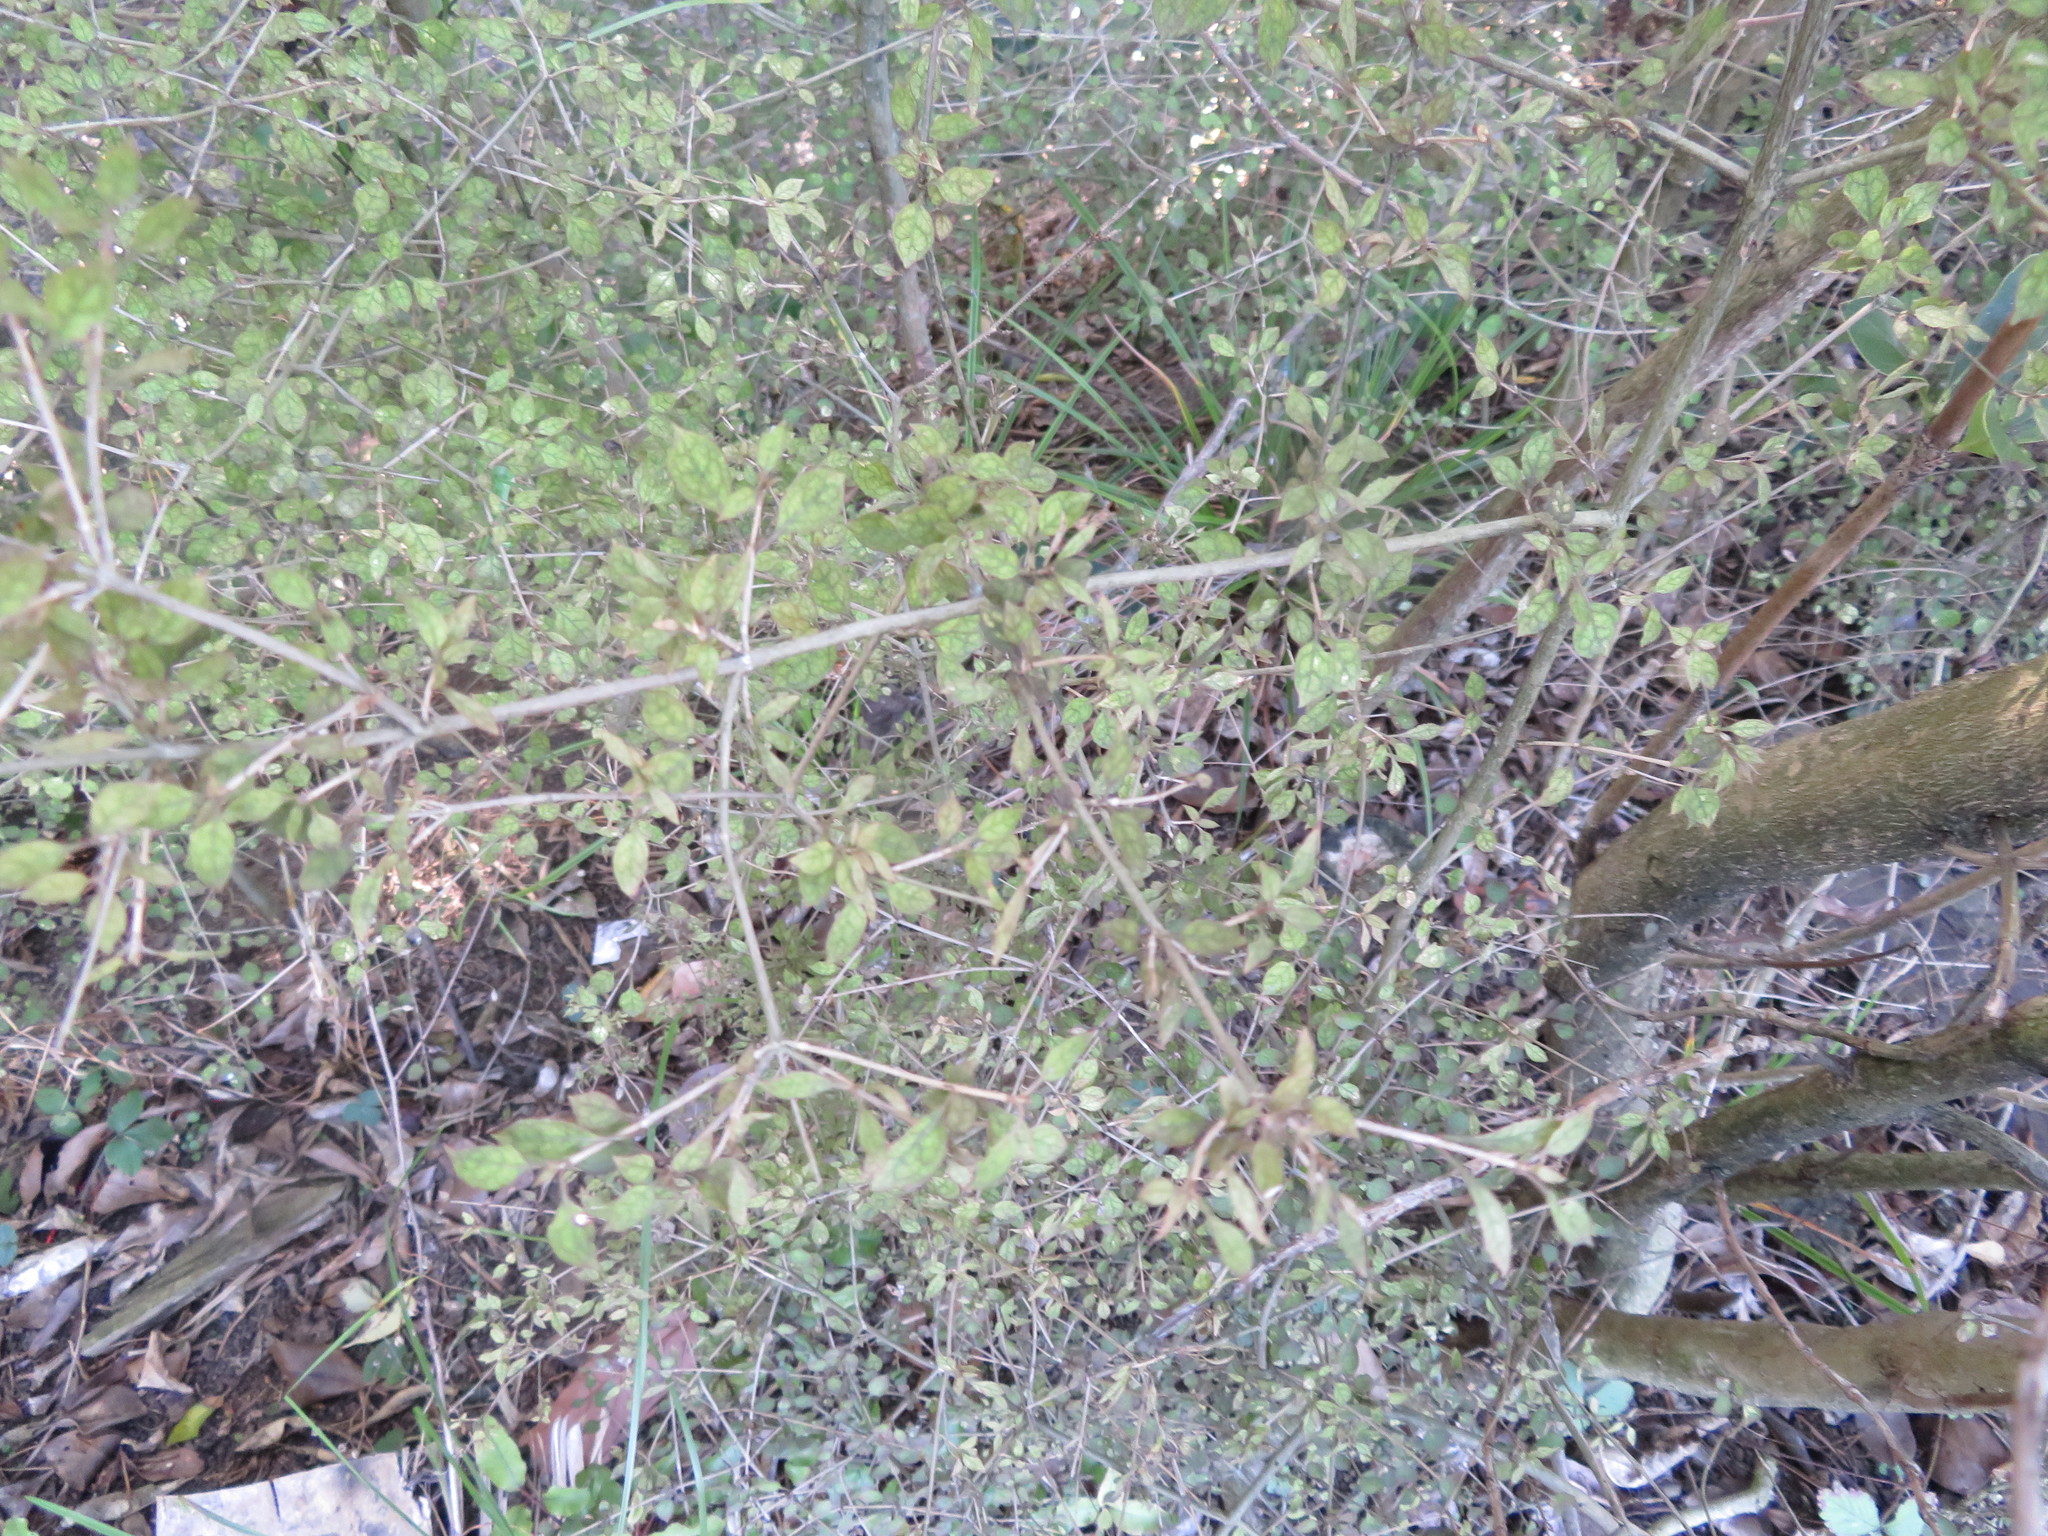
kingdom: Plantae
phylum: Tracheophyta
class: Magnoliopsida
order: Gentianales
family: Rubiaceae
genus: Coprosma
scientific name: Coprosma areolata
